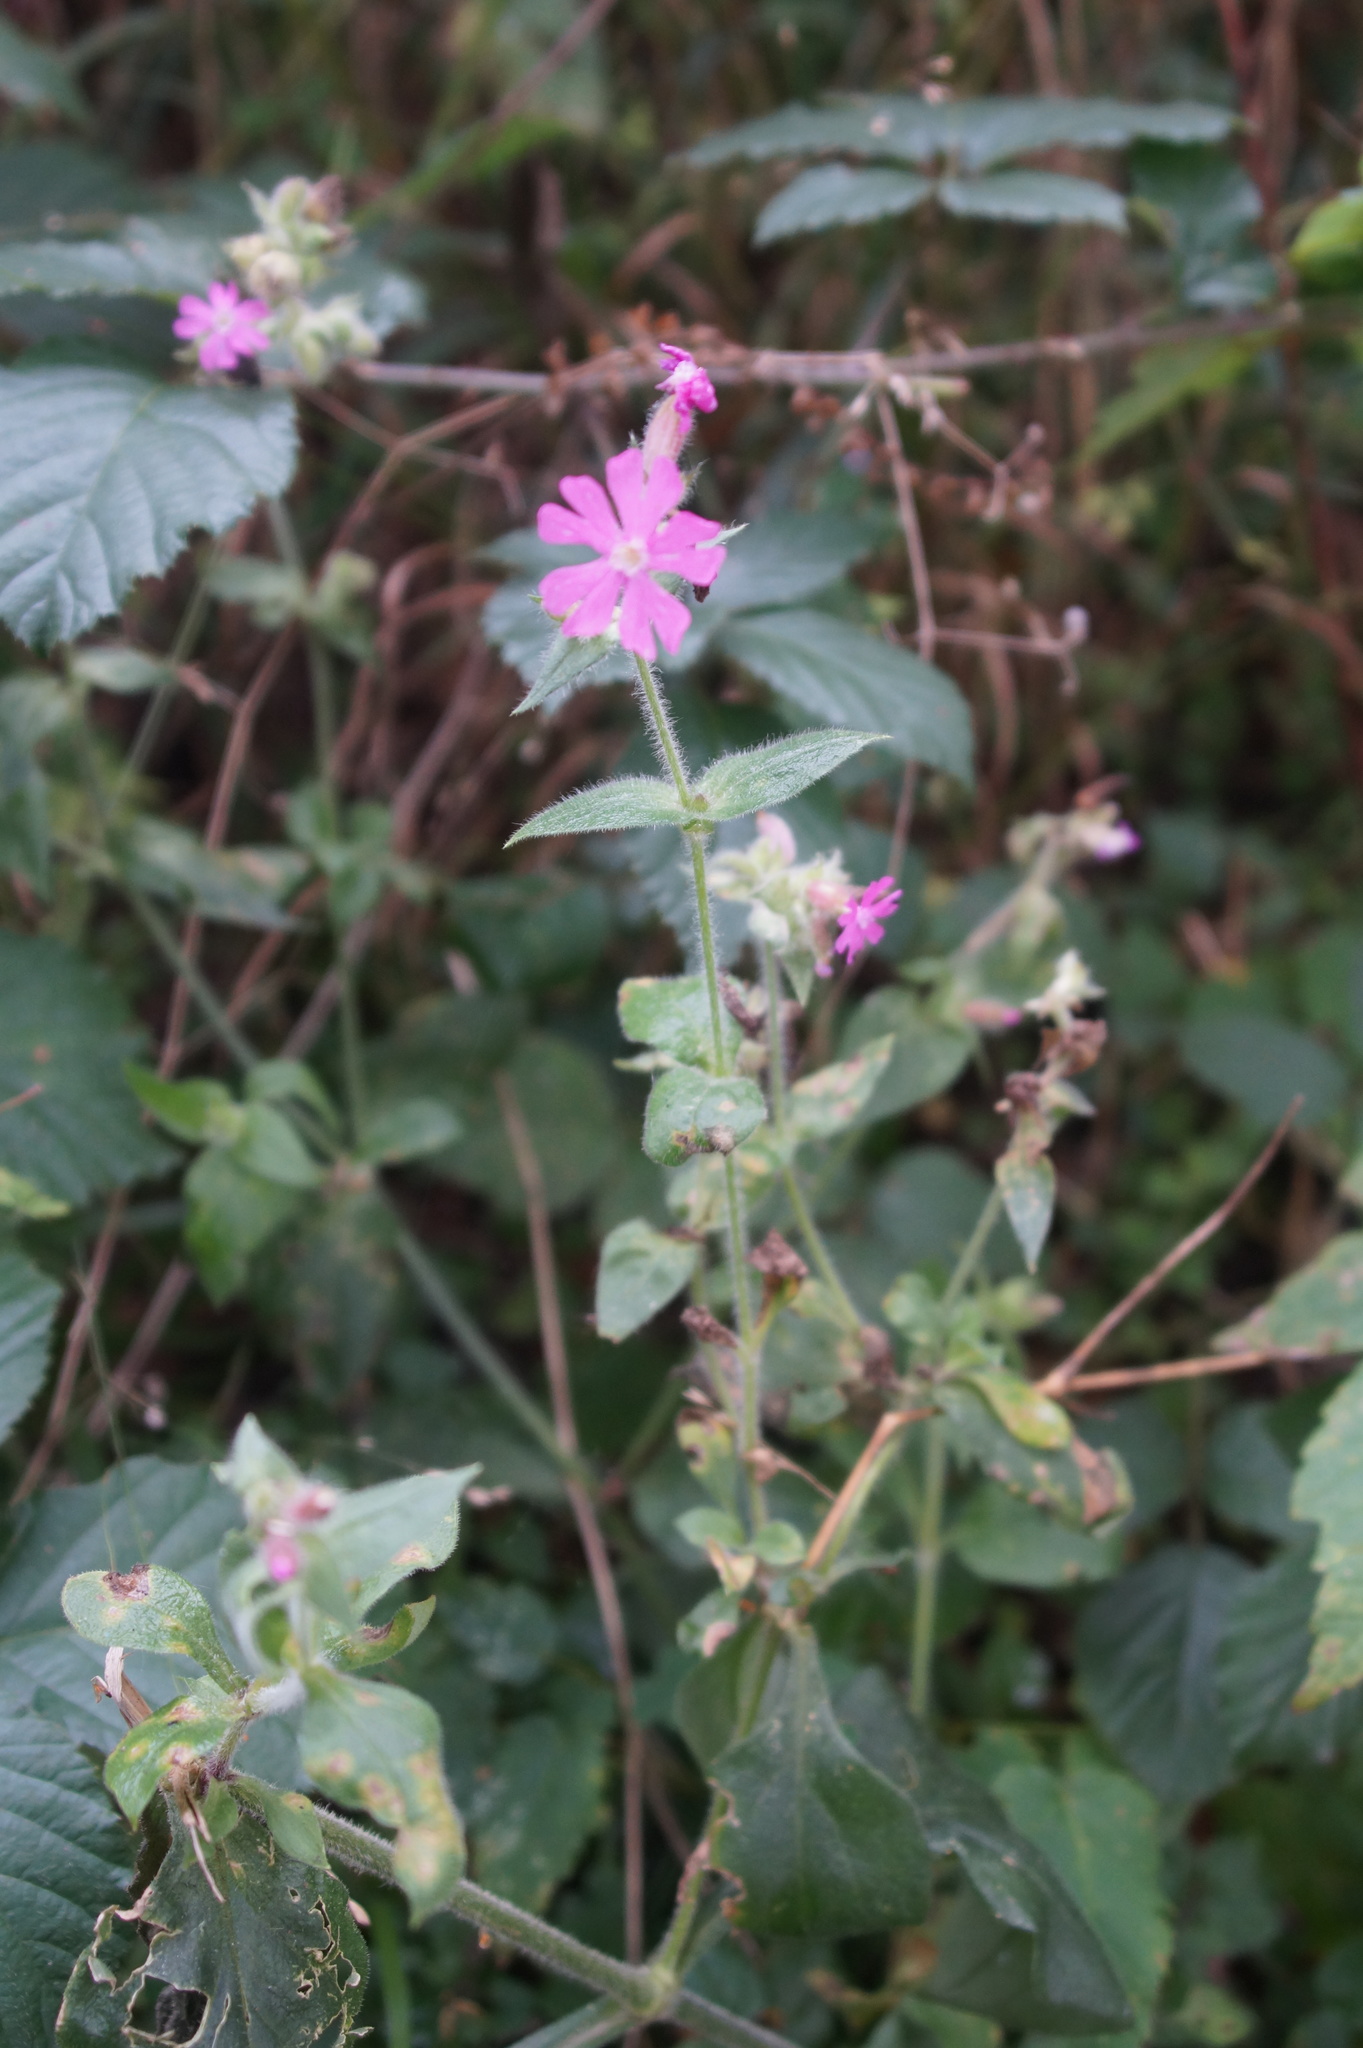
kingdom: Plantae
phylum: Tracheophyta
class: Magnoliopsida
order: Caryophyllales
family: Caryophyllaceae
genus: Silene
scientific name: Silene dioica
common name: Red campion
